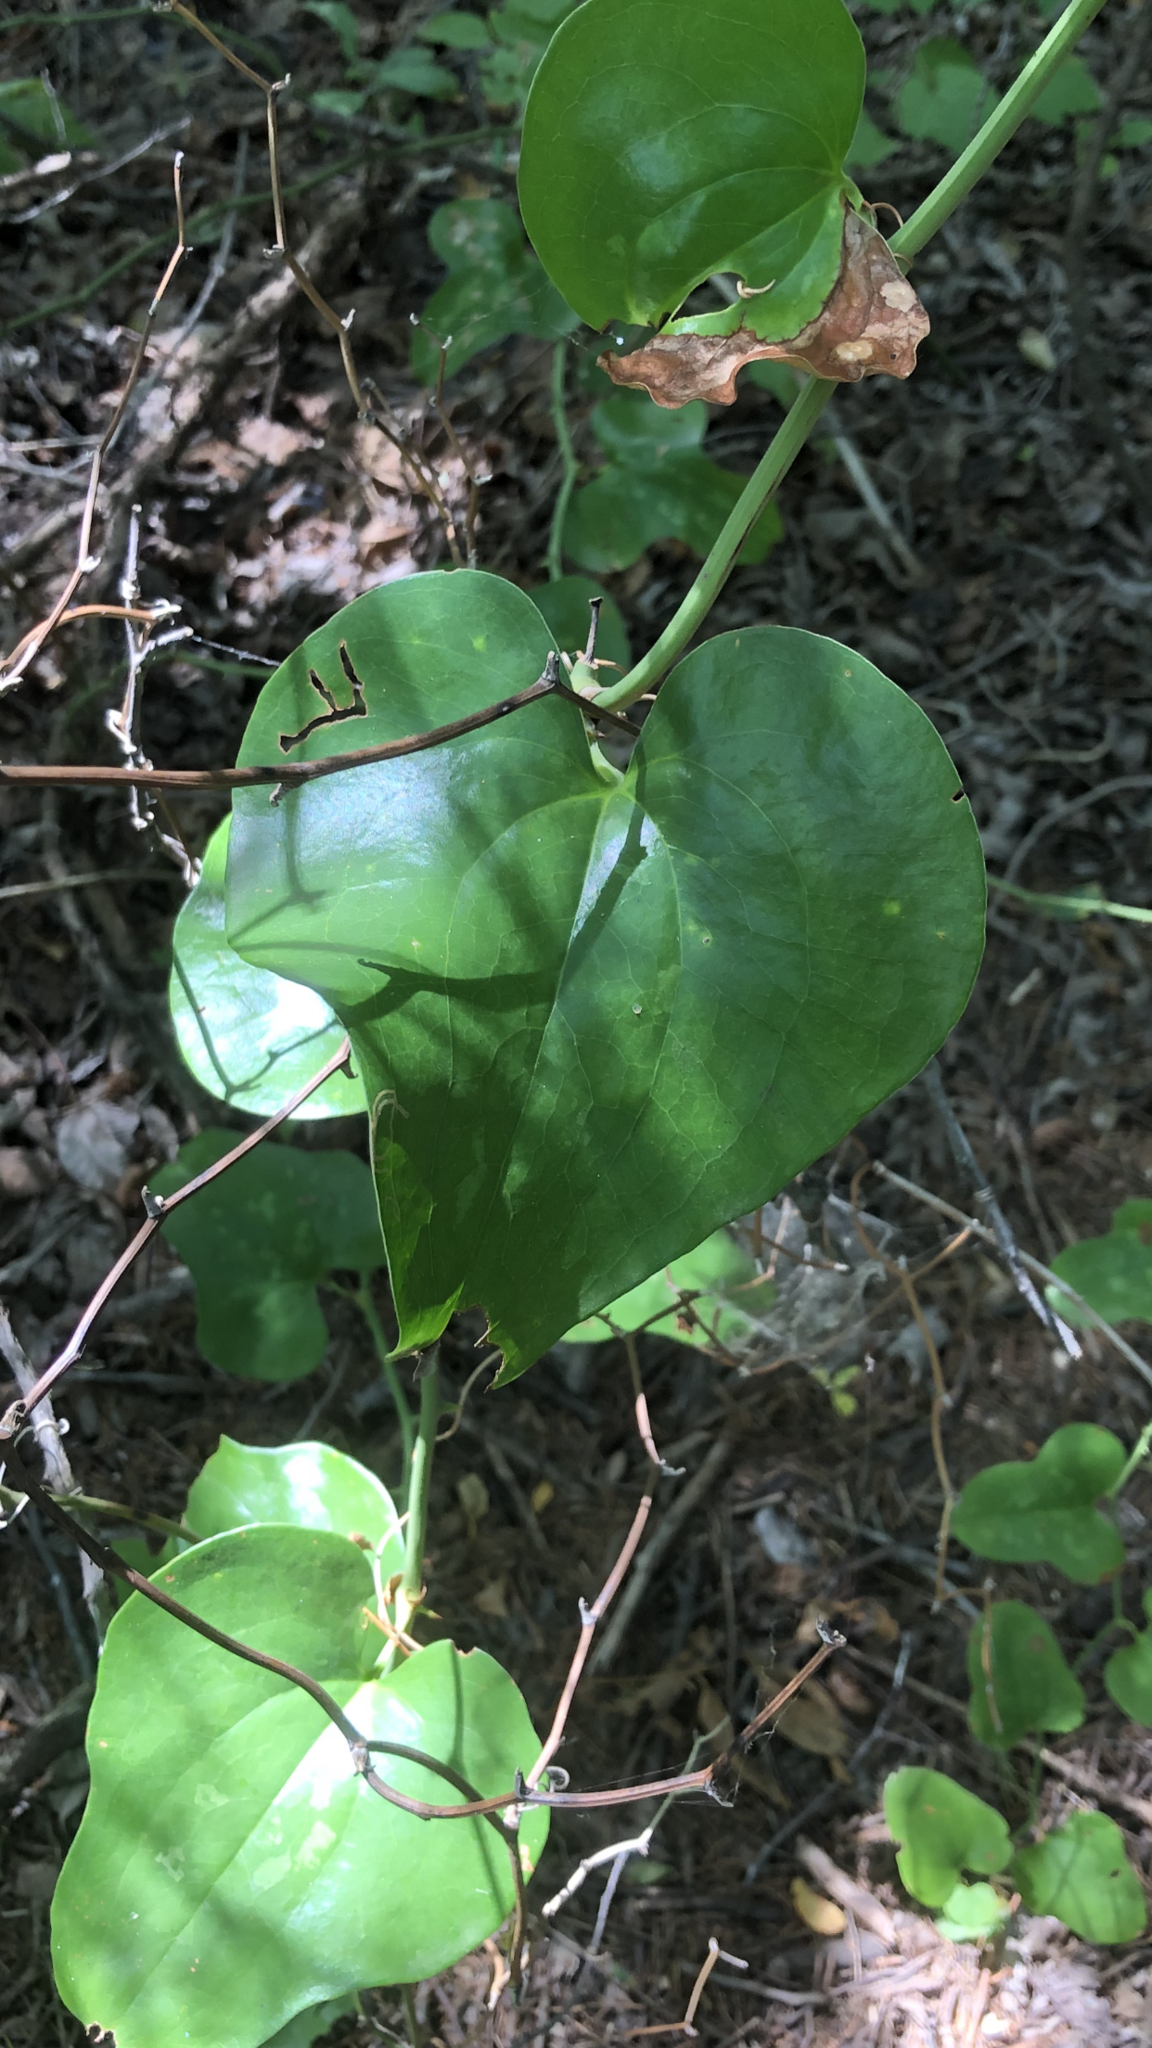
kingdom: Plantae
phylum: Tracheophyta
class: Liliopsida
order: Liliales
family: Smilacaceae
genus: Smilax
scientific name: Smilax bona-nox
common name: Catbrier
